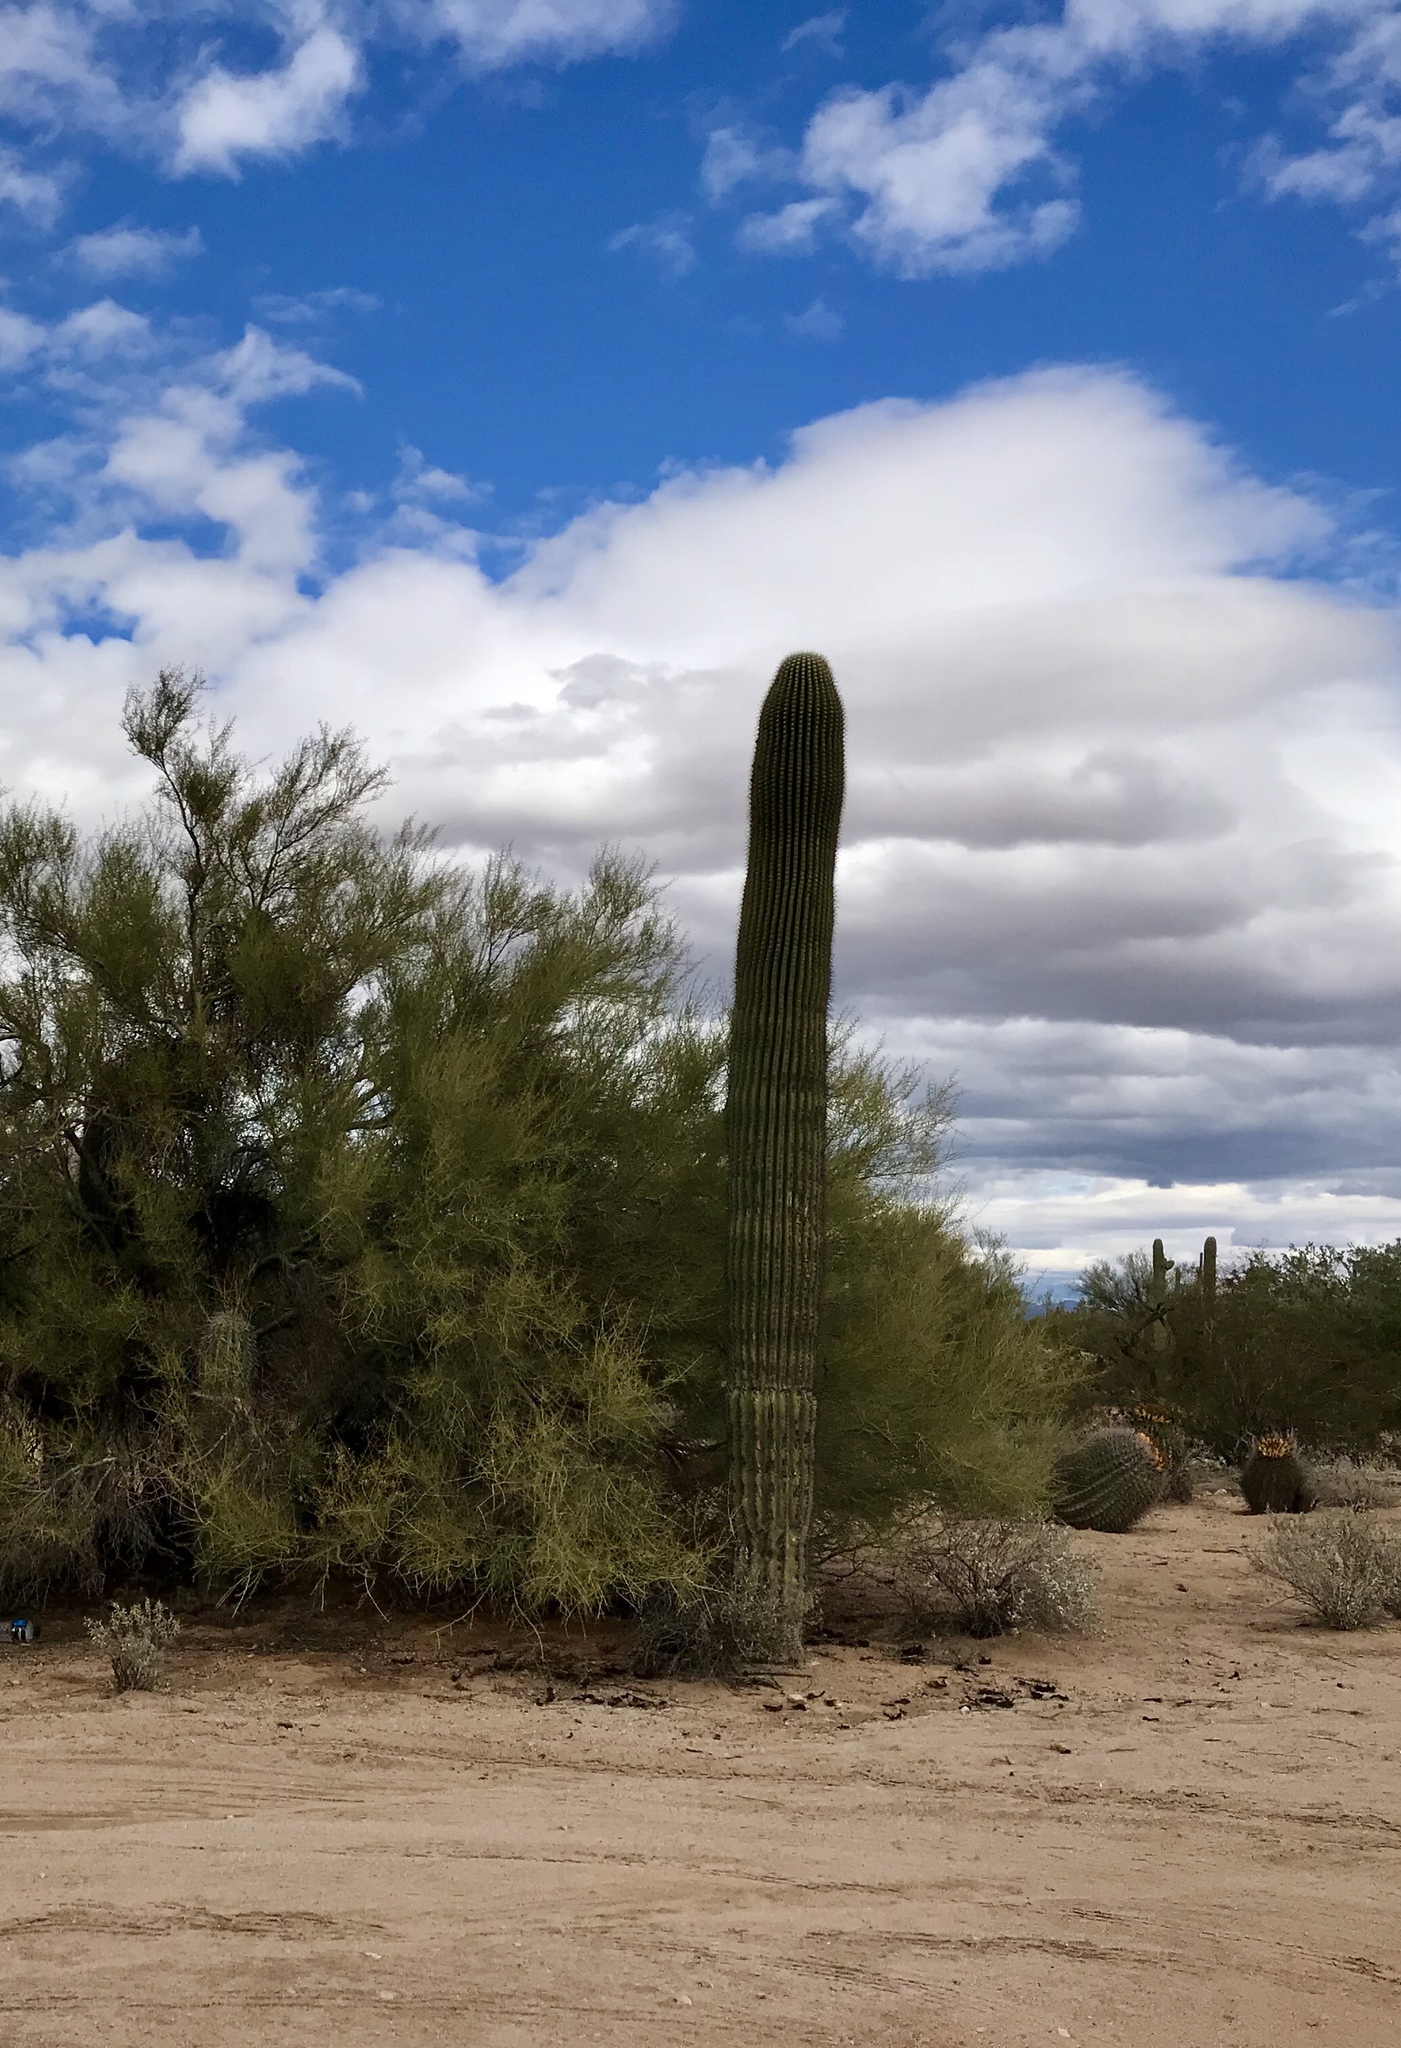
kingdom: Plantae
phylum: Tracheophyta
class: Magnoliopsida
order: Caryophyllales
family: Cactaceae
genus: Carnegiea
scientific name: Carnegiea gigantea
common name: Saguaro
